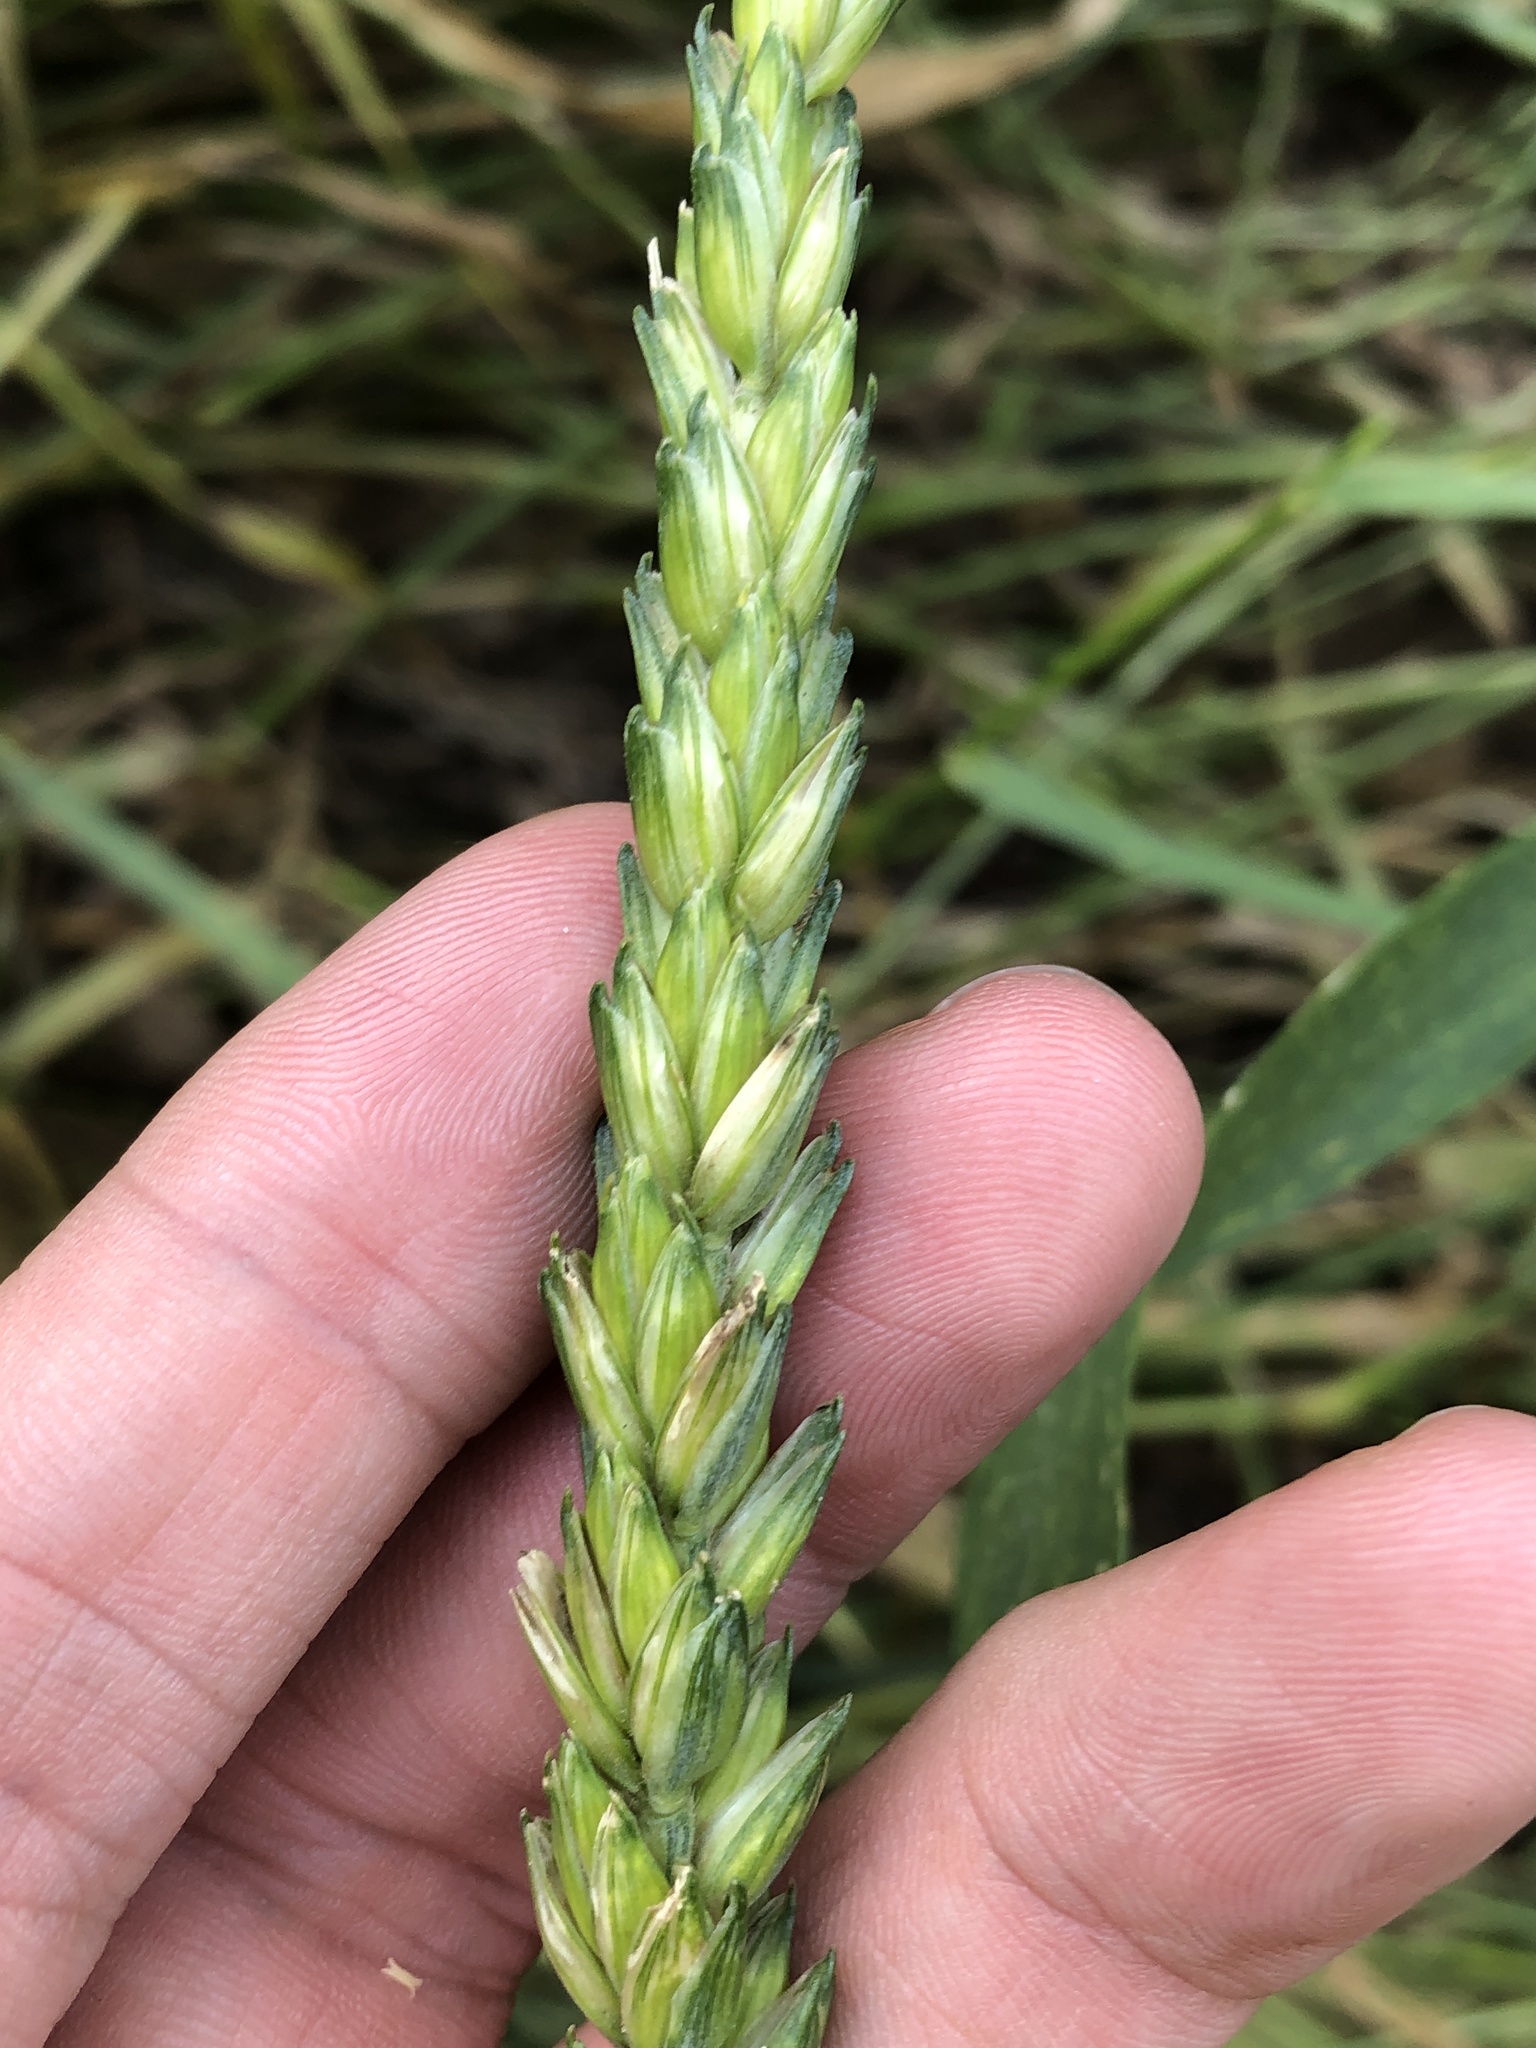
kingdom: Plantae
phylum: Tracheophyta
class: Liliopsida
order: Poales
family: Poaceae
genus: Triticum
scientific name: Triticum aestivum
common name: Common wheat
